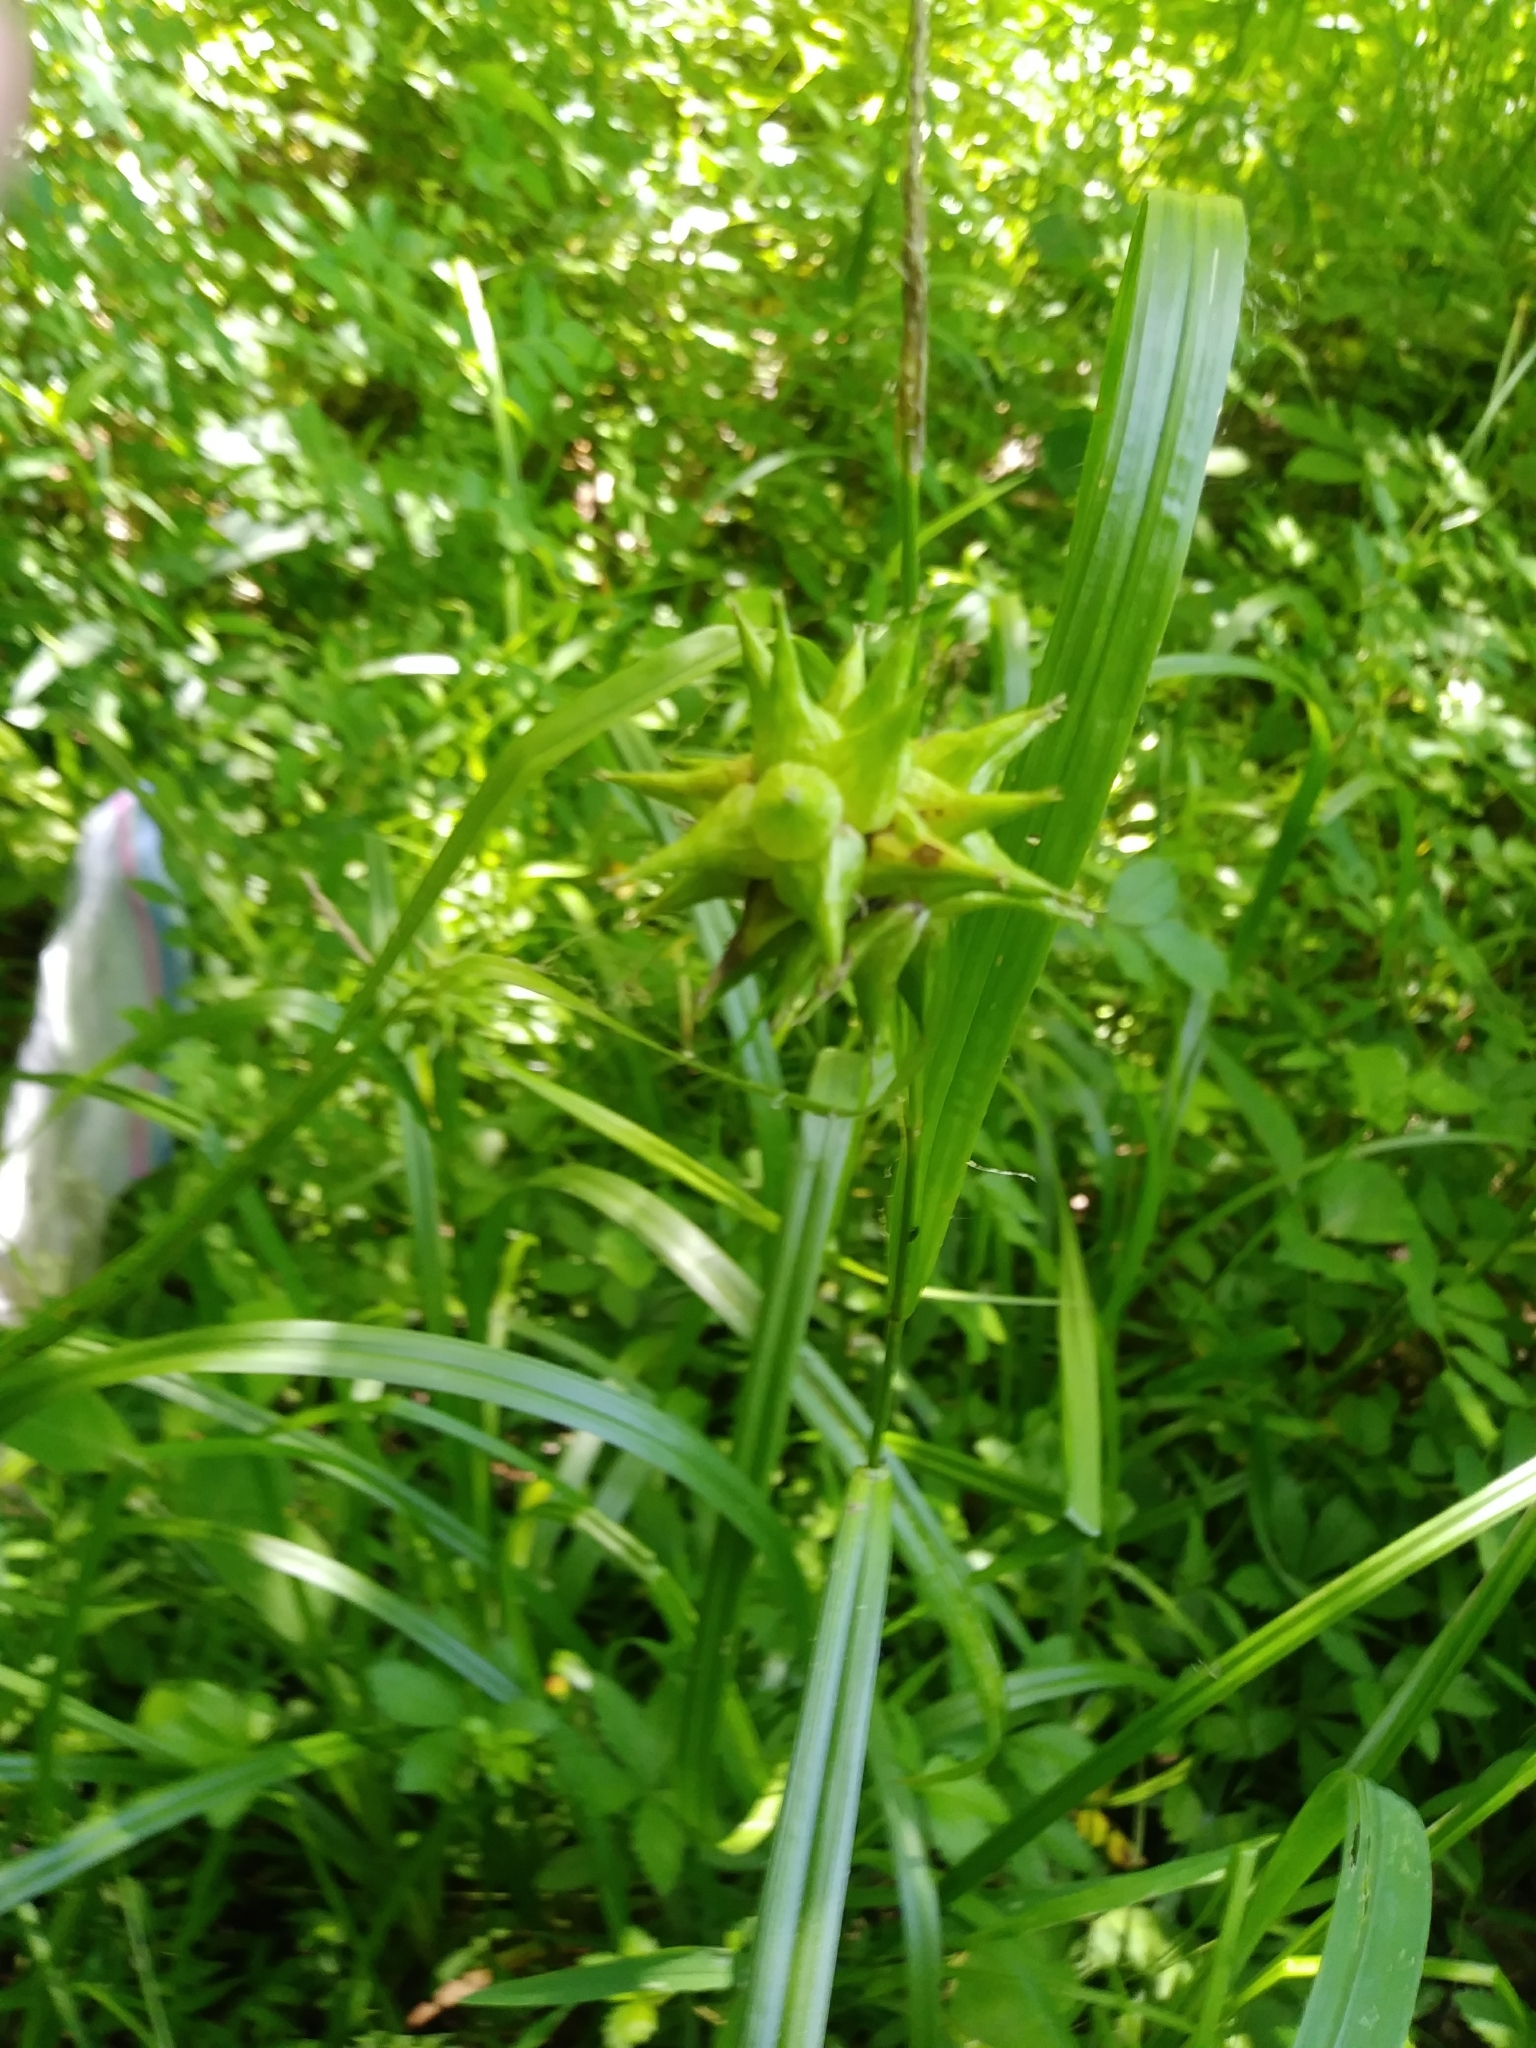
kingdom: Plantae
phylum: Tracheophyta
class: Liliopsida
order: Poales
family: Cyperaceae
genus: Carex
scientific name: Carex grayi
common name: Asa gray's sedge
